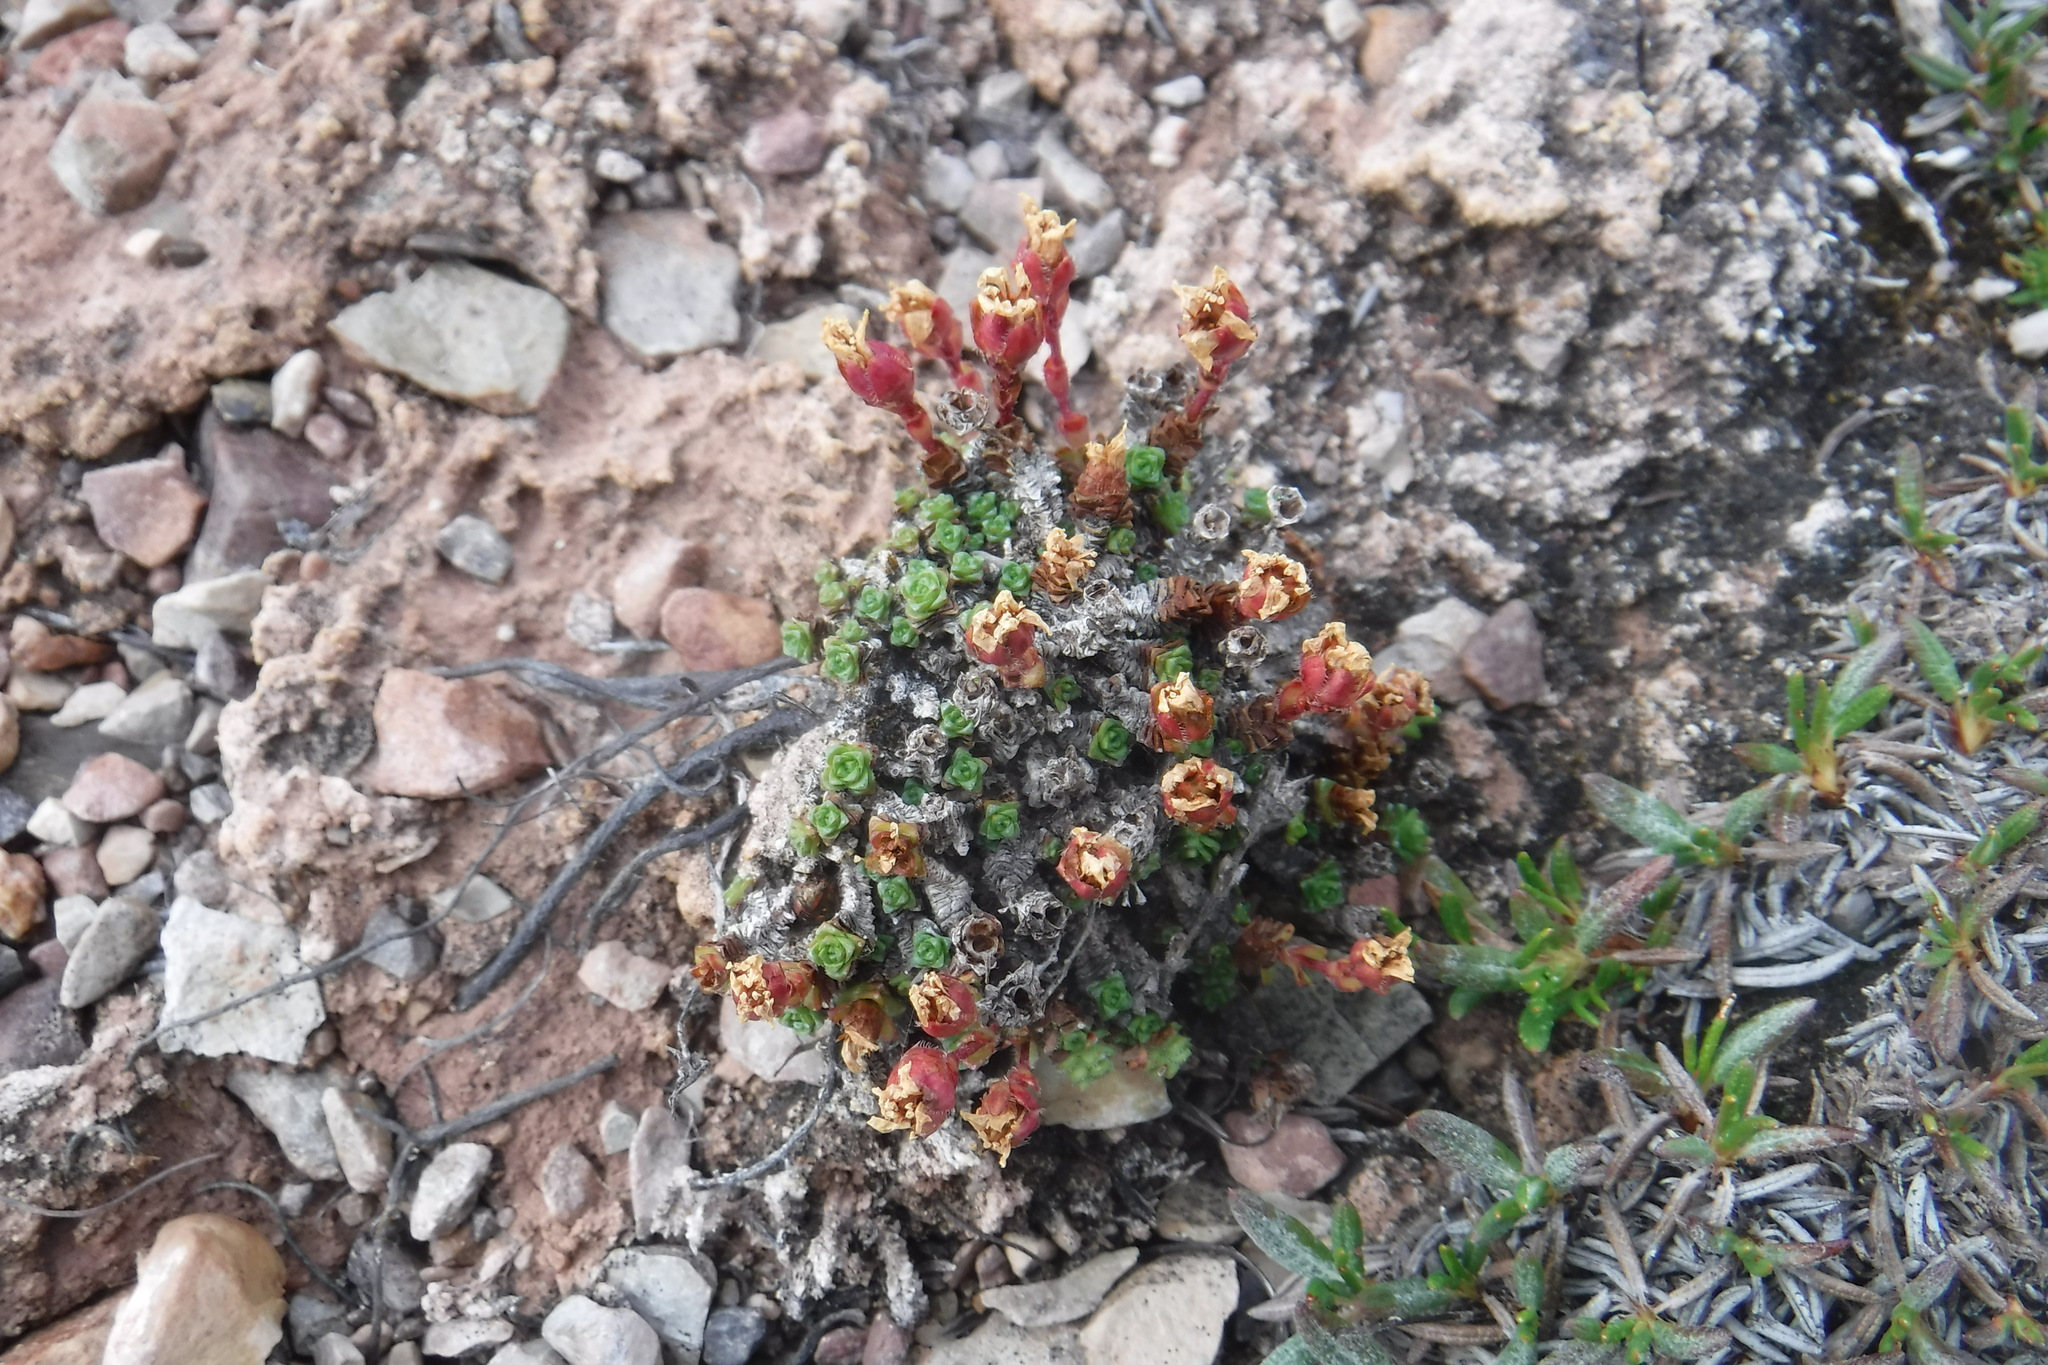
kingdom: Plantae
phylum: Tracheophyta
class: Magnoliopsida
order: Saxifragales
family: Saxifragaceae
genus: Saxifraga
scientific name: Saxifraga oppositifolia
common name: Purple saxifrage
